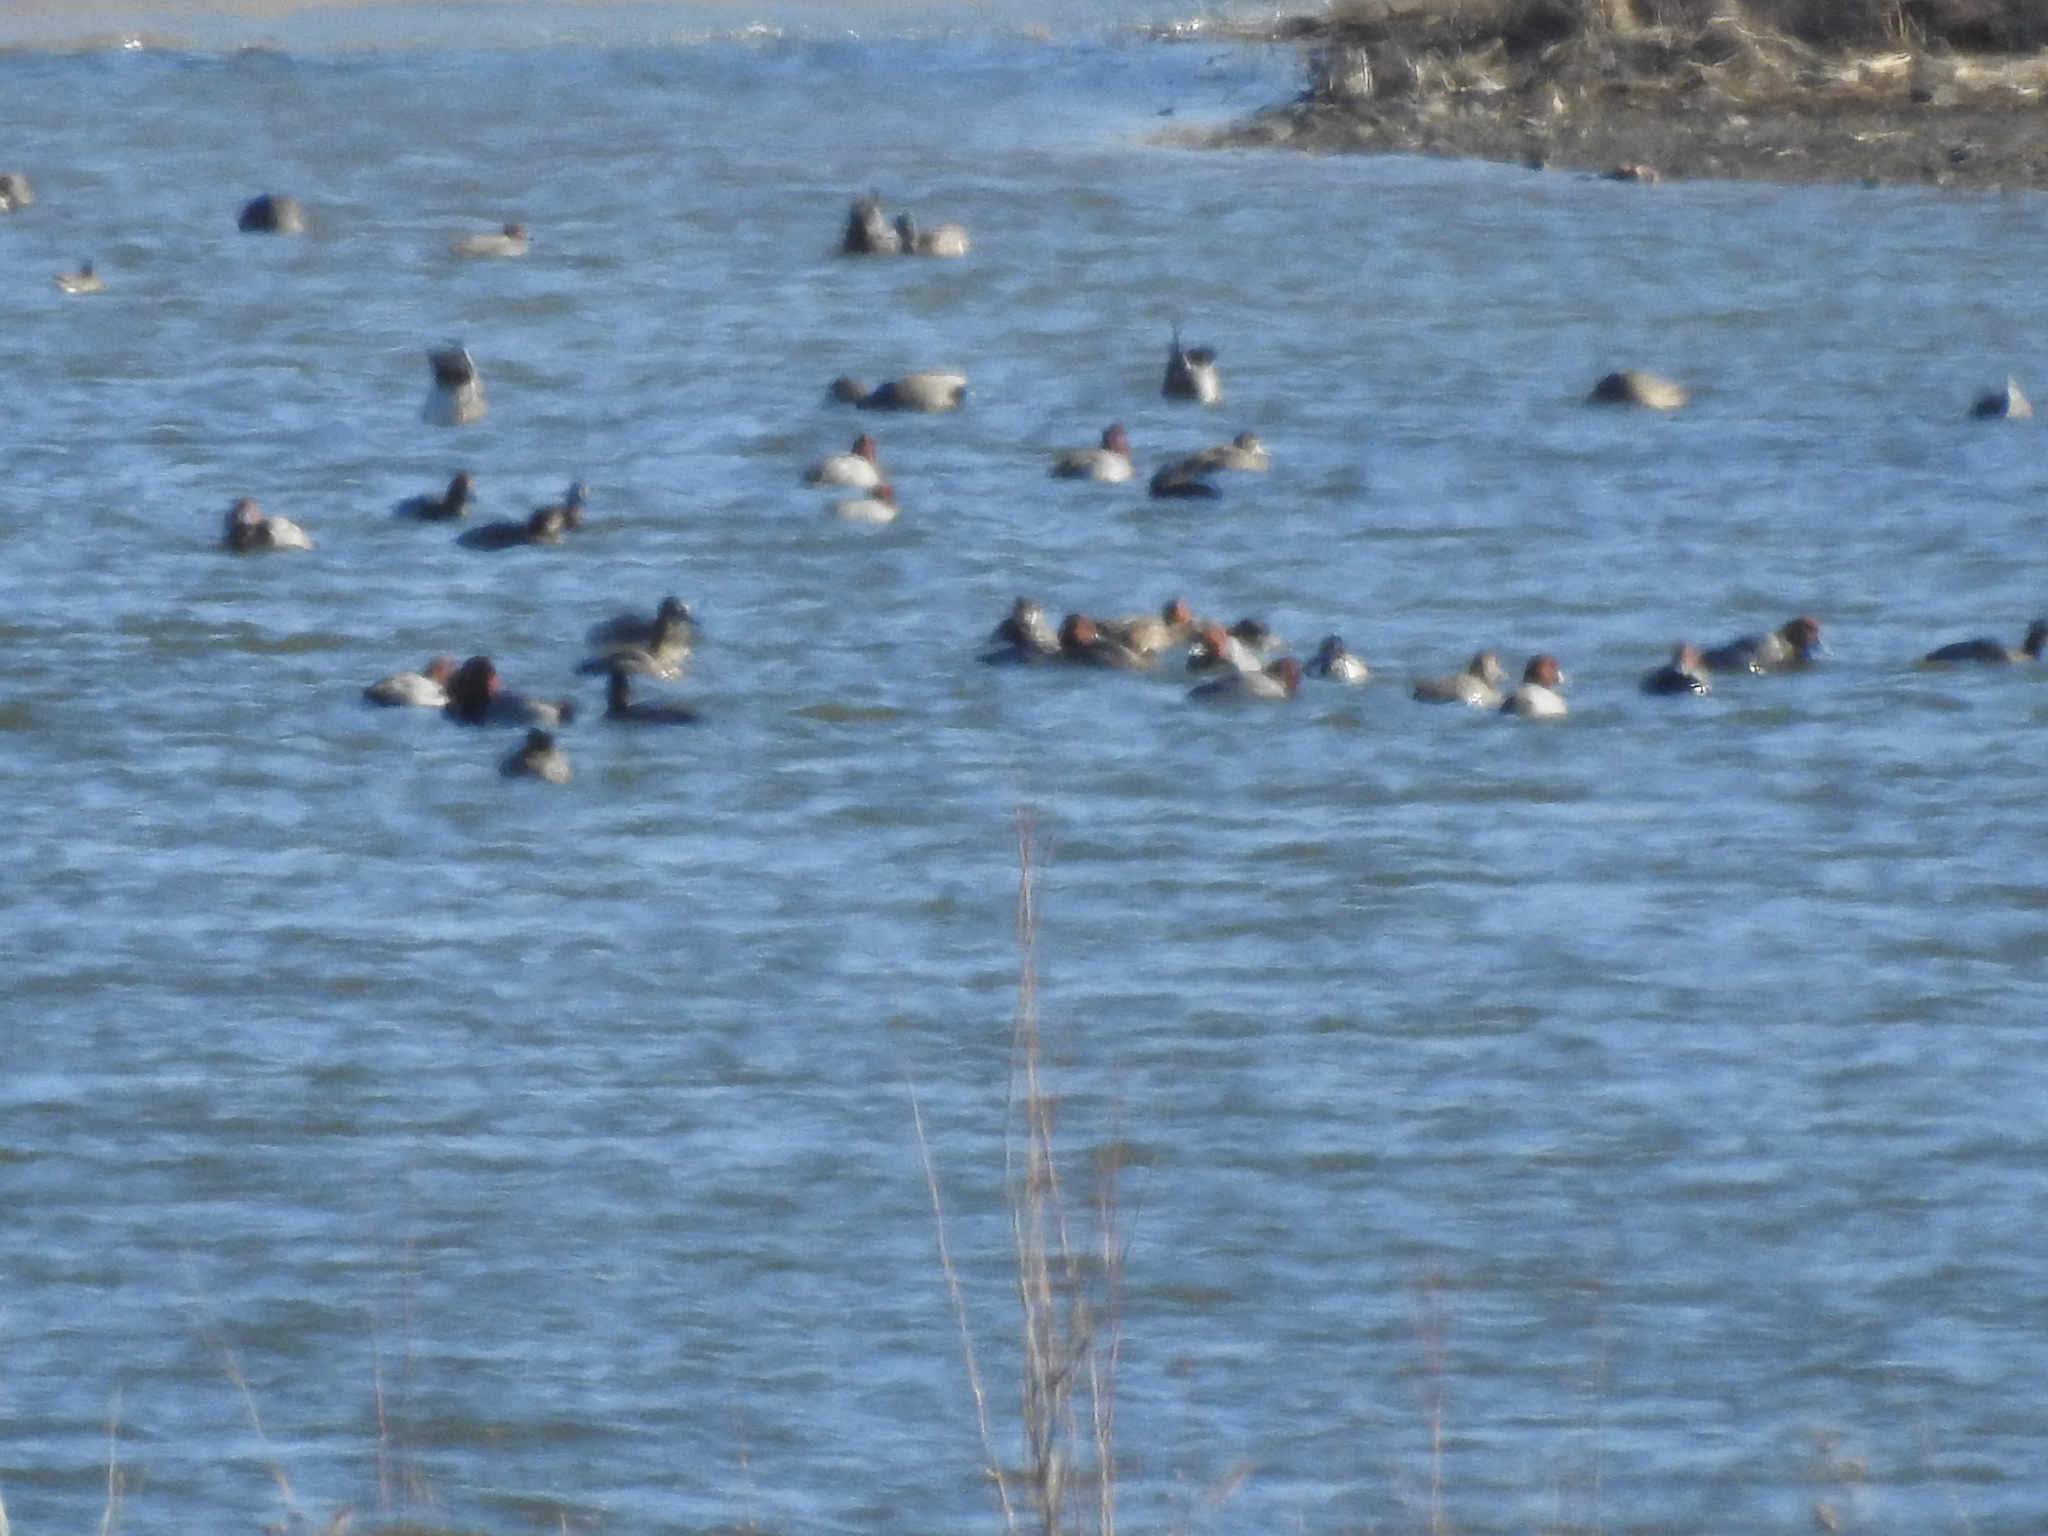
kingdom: Animalia
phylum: Chordata
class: Aves
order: Anseriformes
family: Anatidae
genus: Aythya
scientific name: Aythya americana
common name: Redhead
